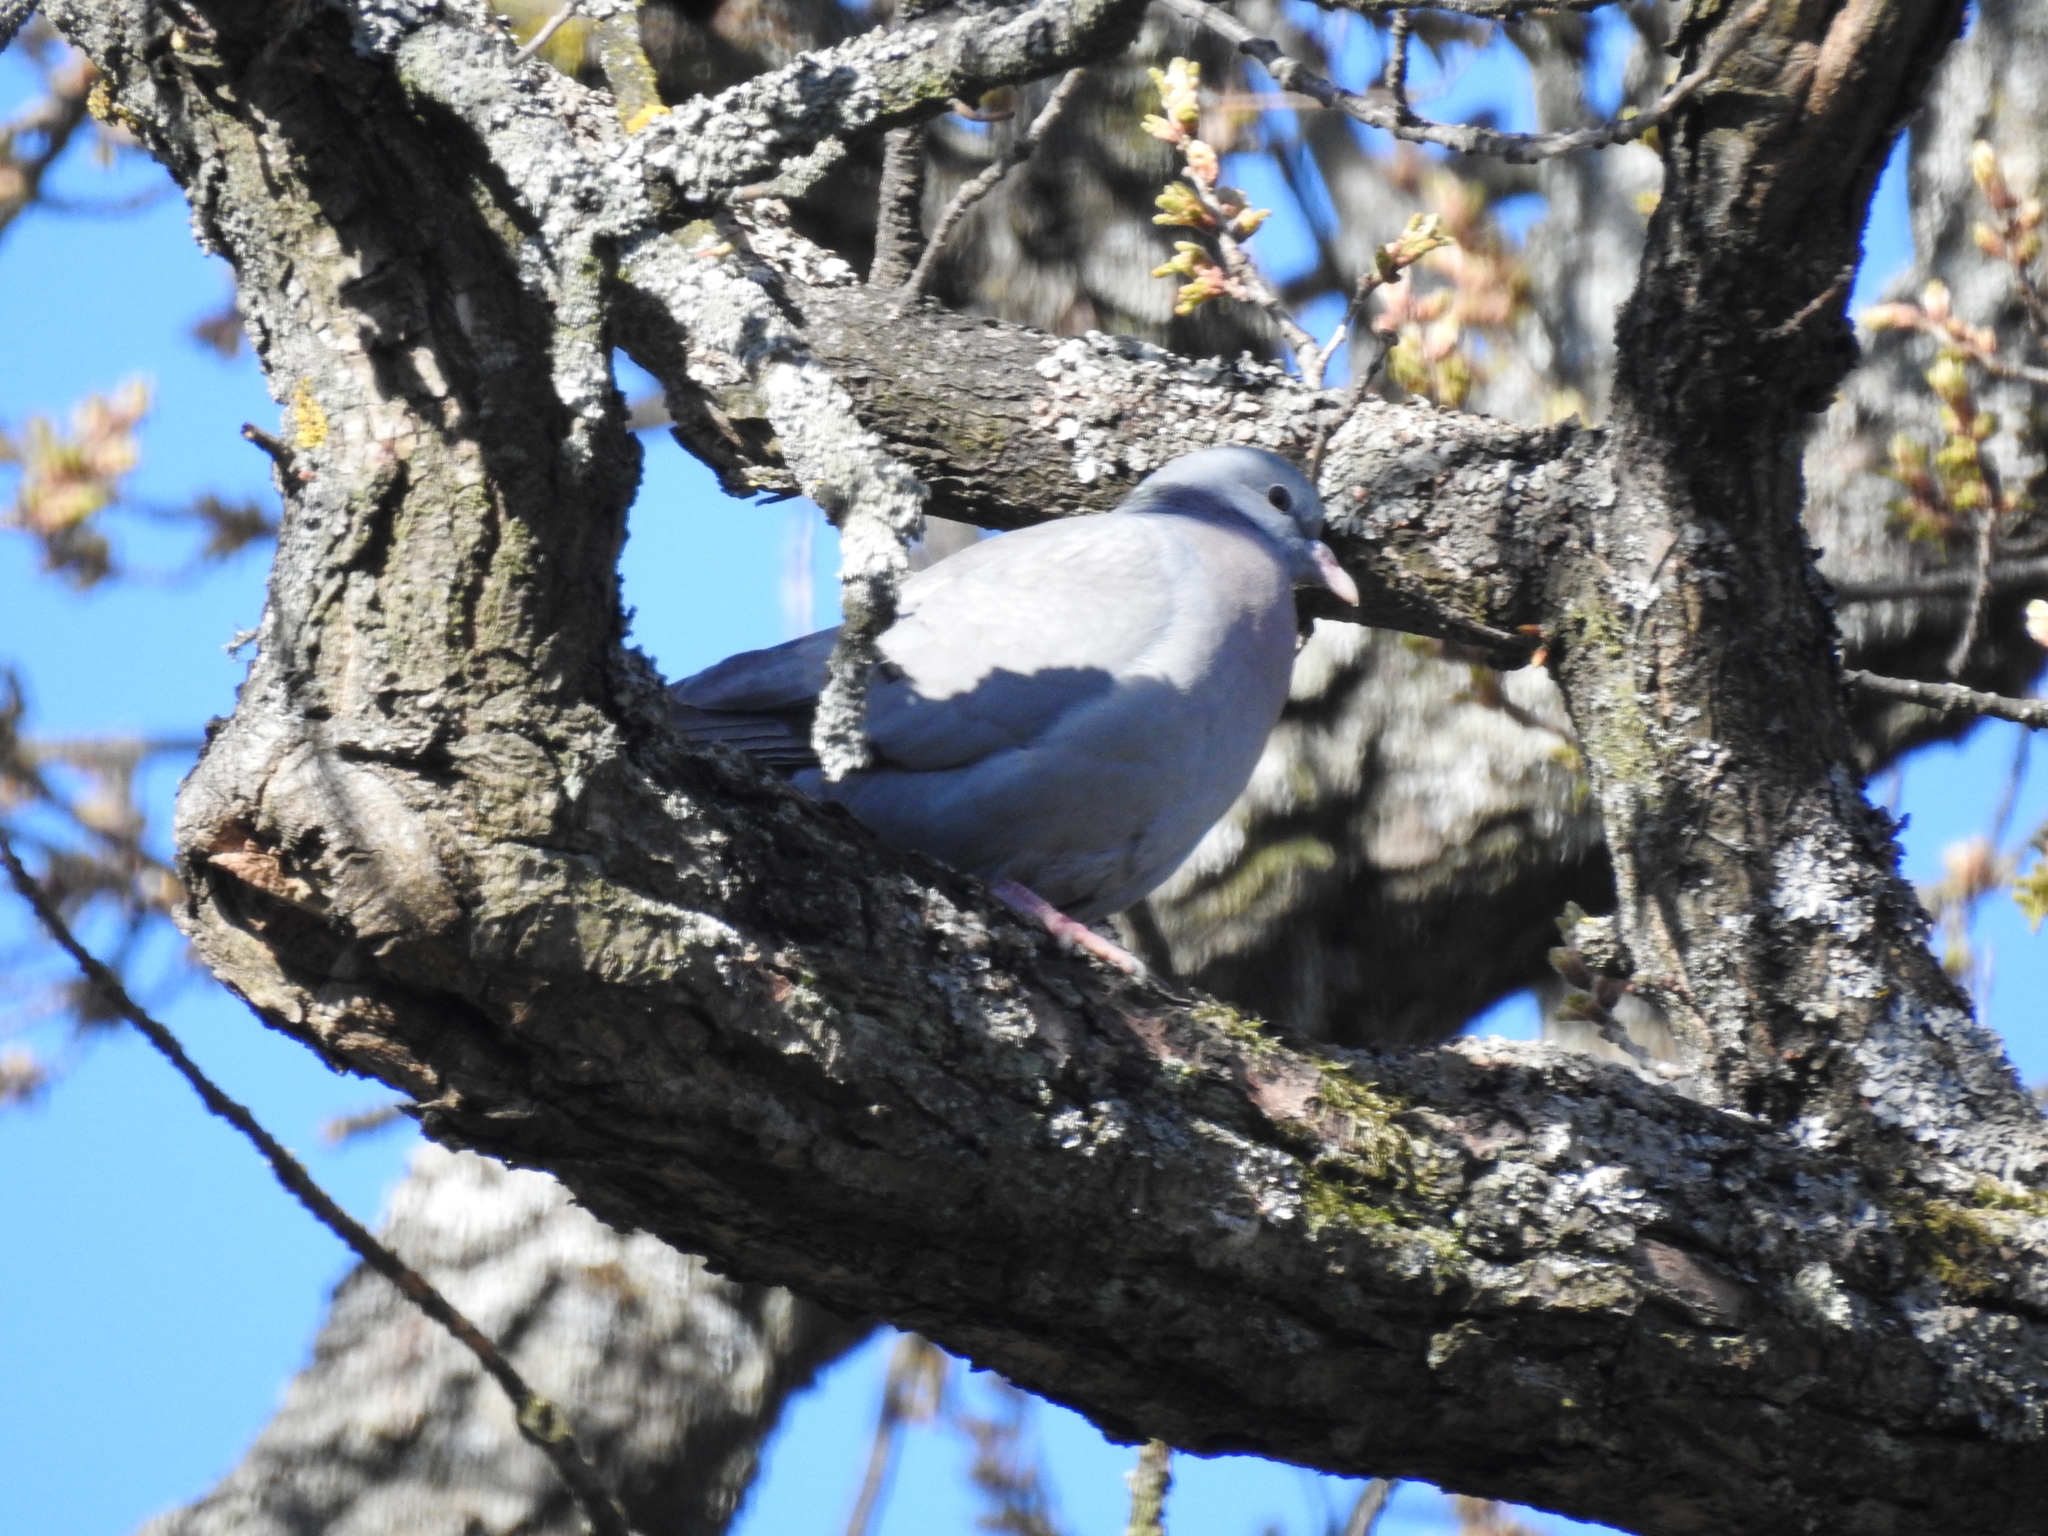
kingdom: Animalia
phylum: Chordata
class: Aves
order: Columbiformes
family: Columbidae
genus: Columba
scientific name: Columba oenas
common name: Stock dove
